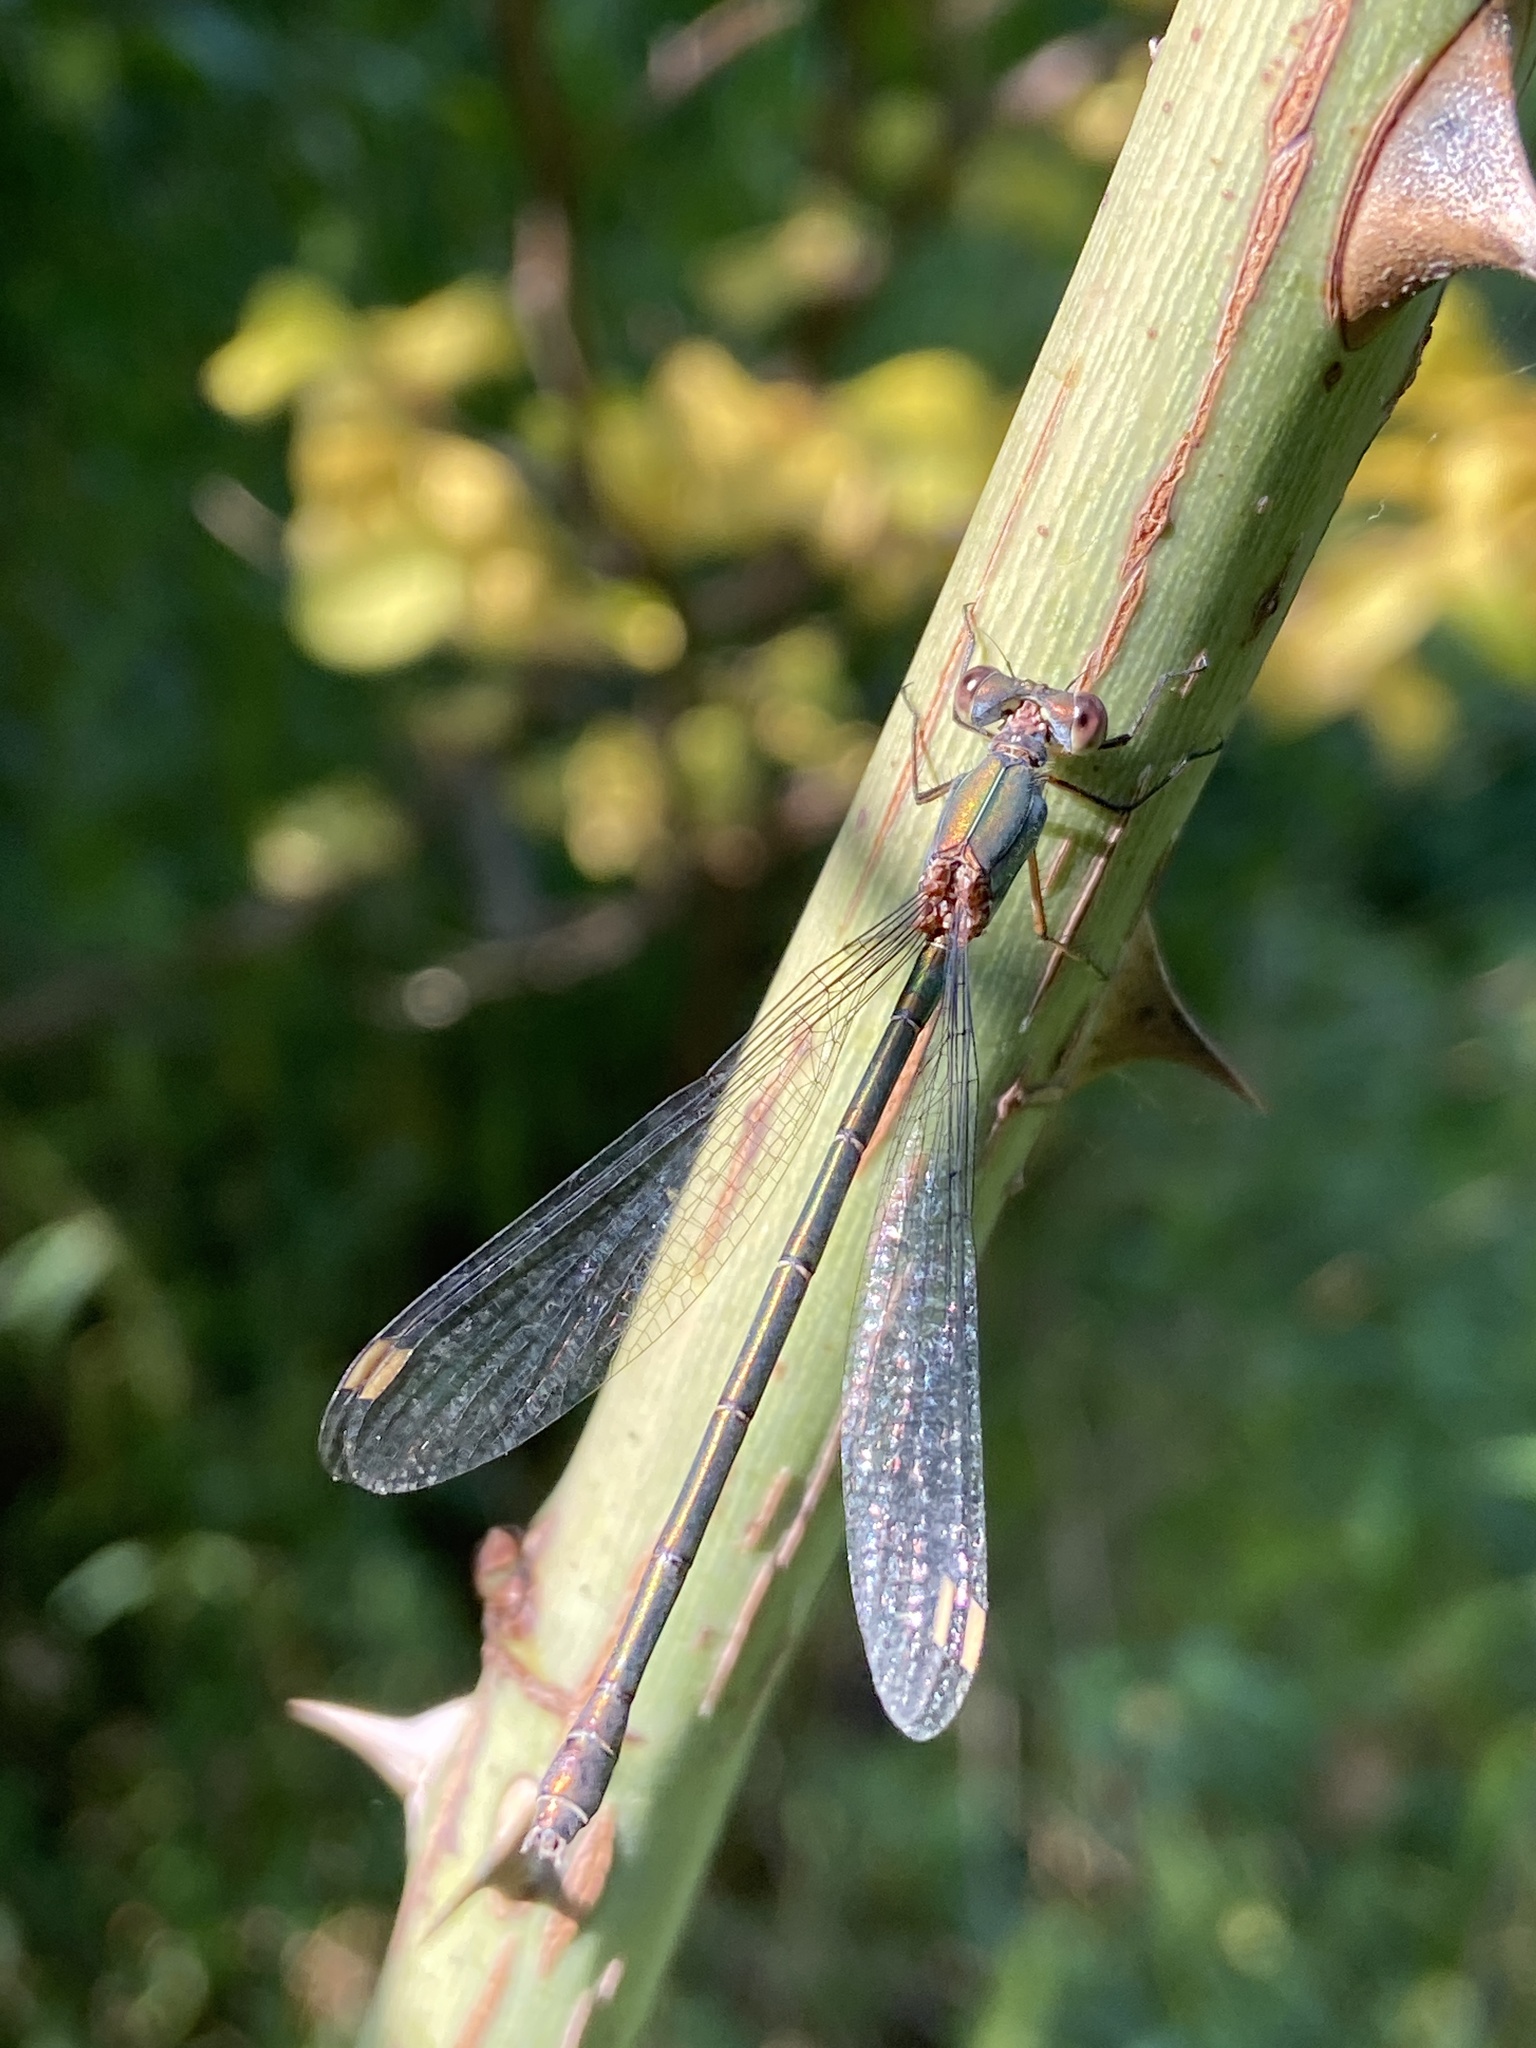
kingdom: Animalia
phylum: Arthropoda
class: Insecta
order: Odonata
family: Lestidae
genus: Chalcolestes
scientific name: Chalcolestes viridis
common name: Green emerald damselfly
